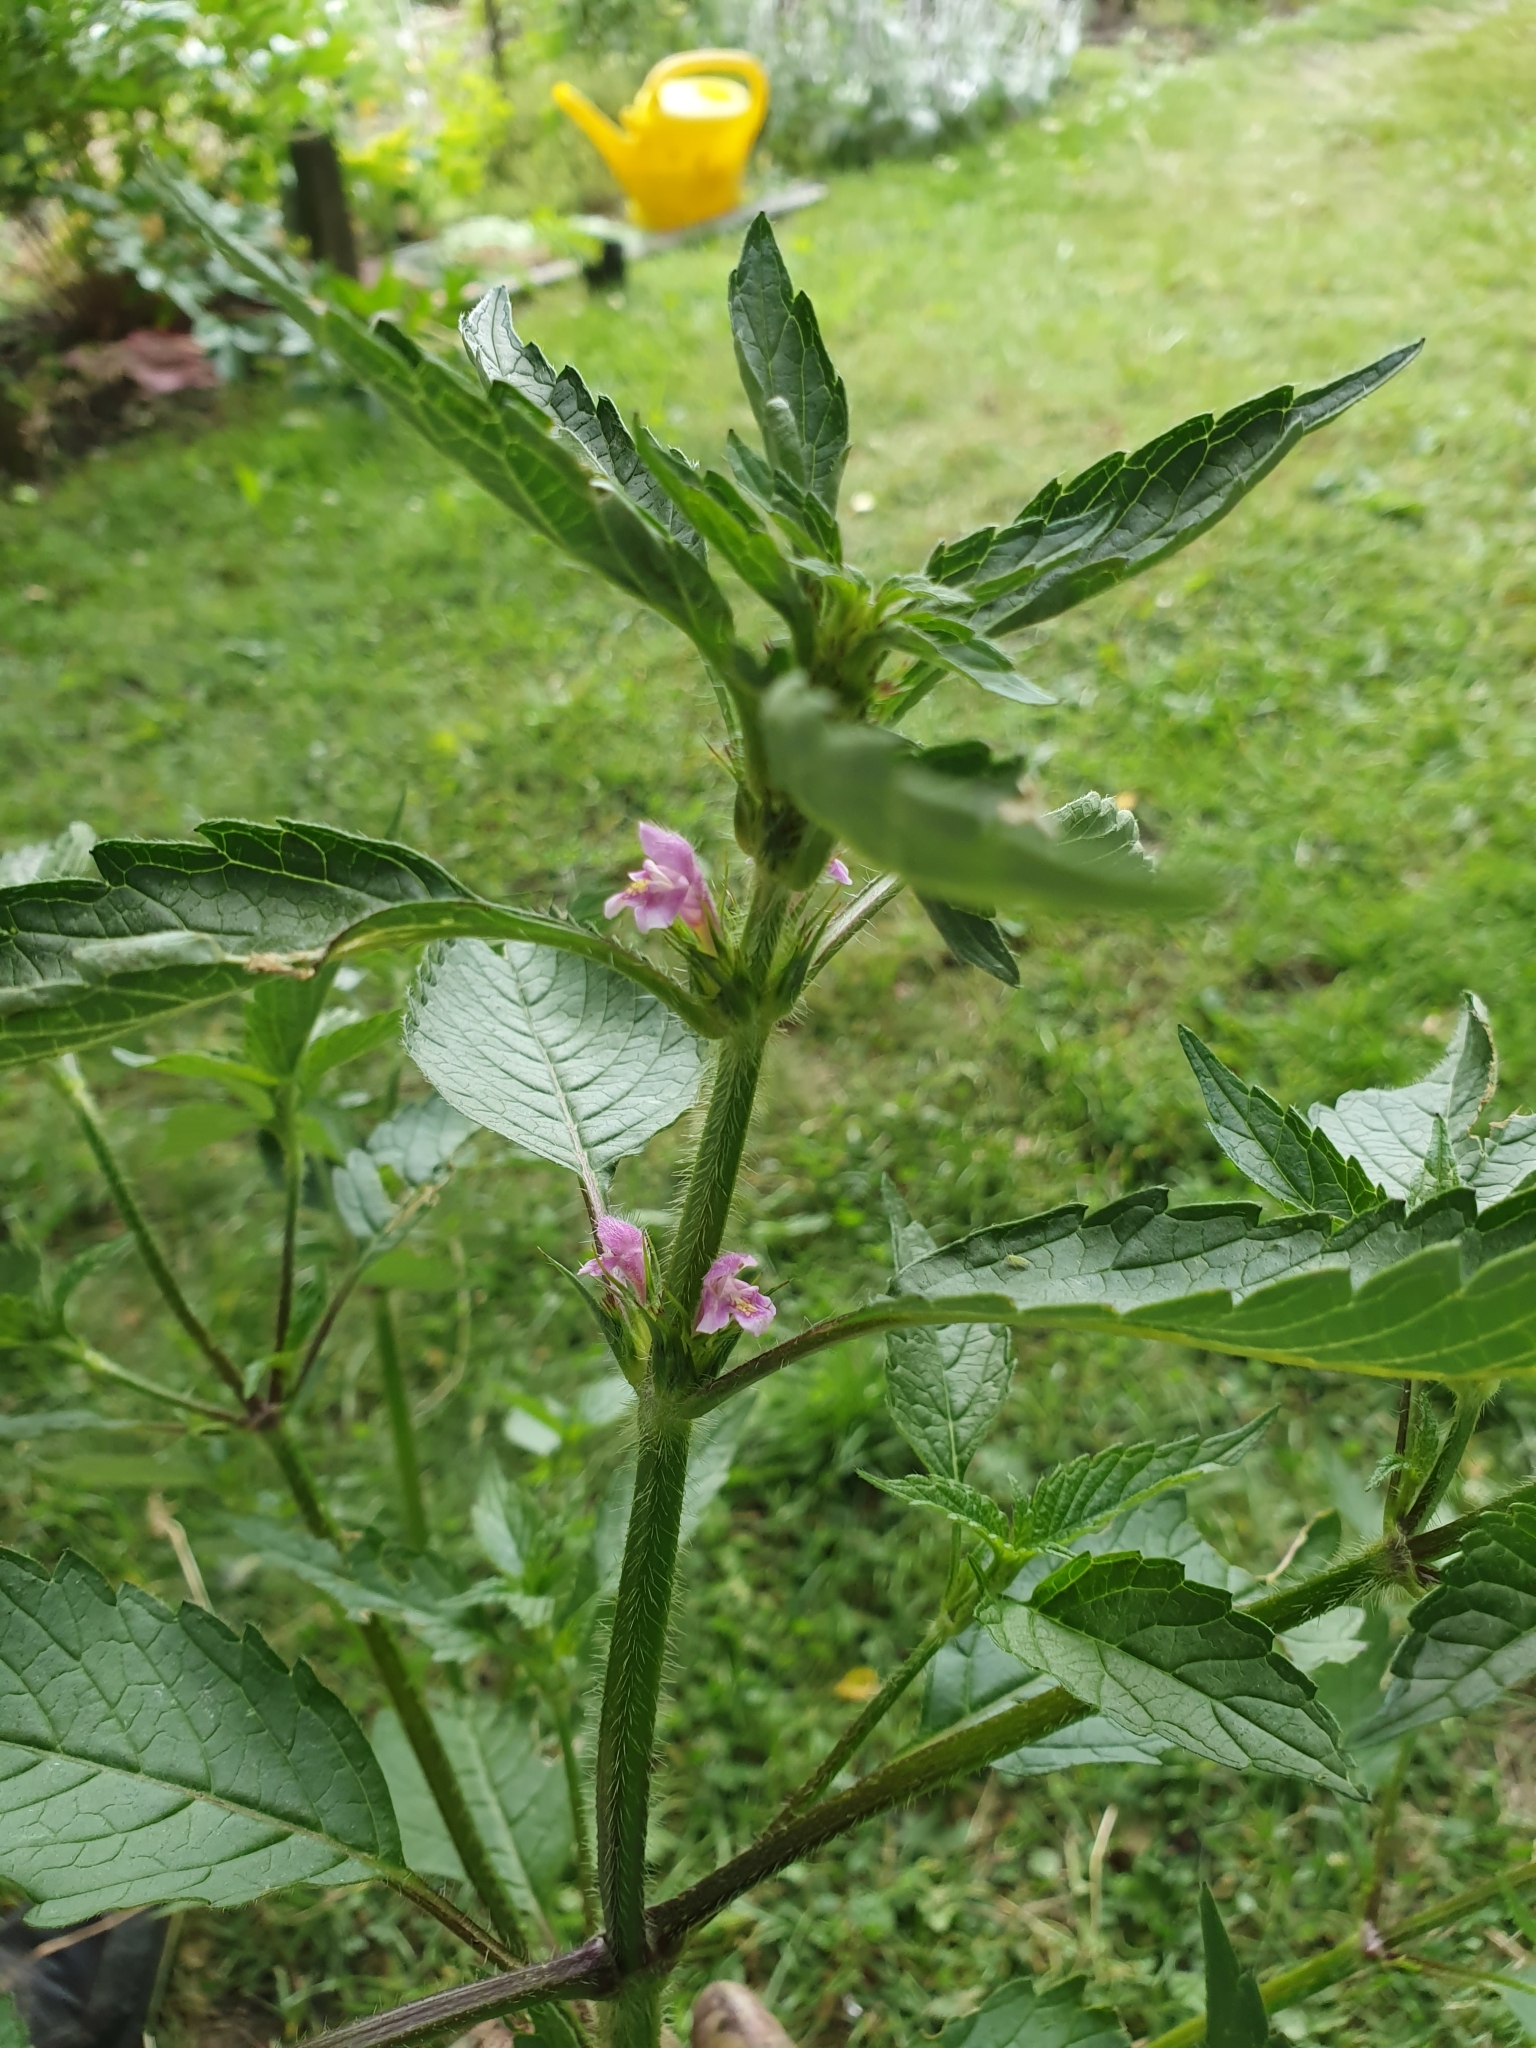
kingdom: Plantae
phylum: Tracheophyta
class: Magnoliopsida
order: Lamiales
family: Lamiaceae
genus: Galeopsis
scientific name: Galeopsis tetrahit
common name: Common hemp-nettle
